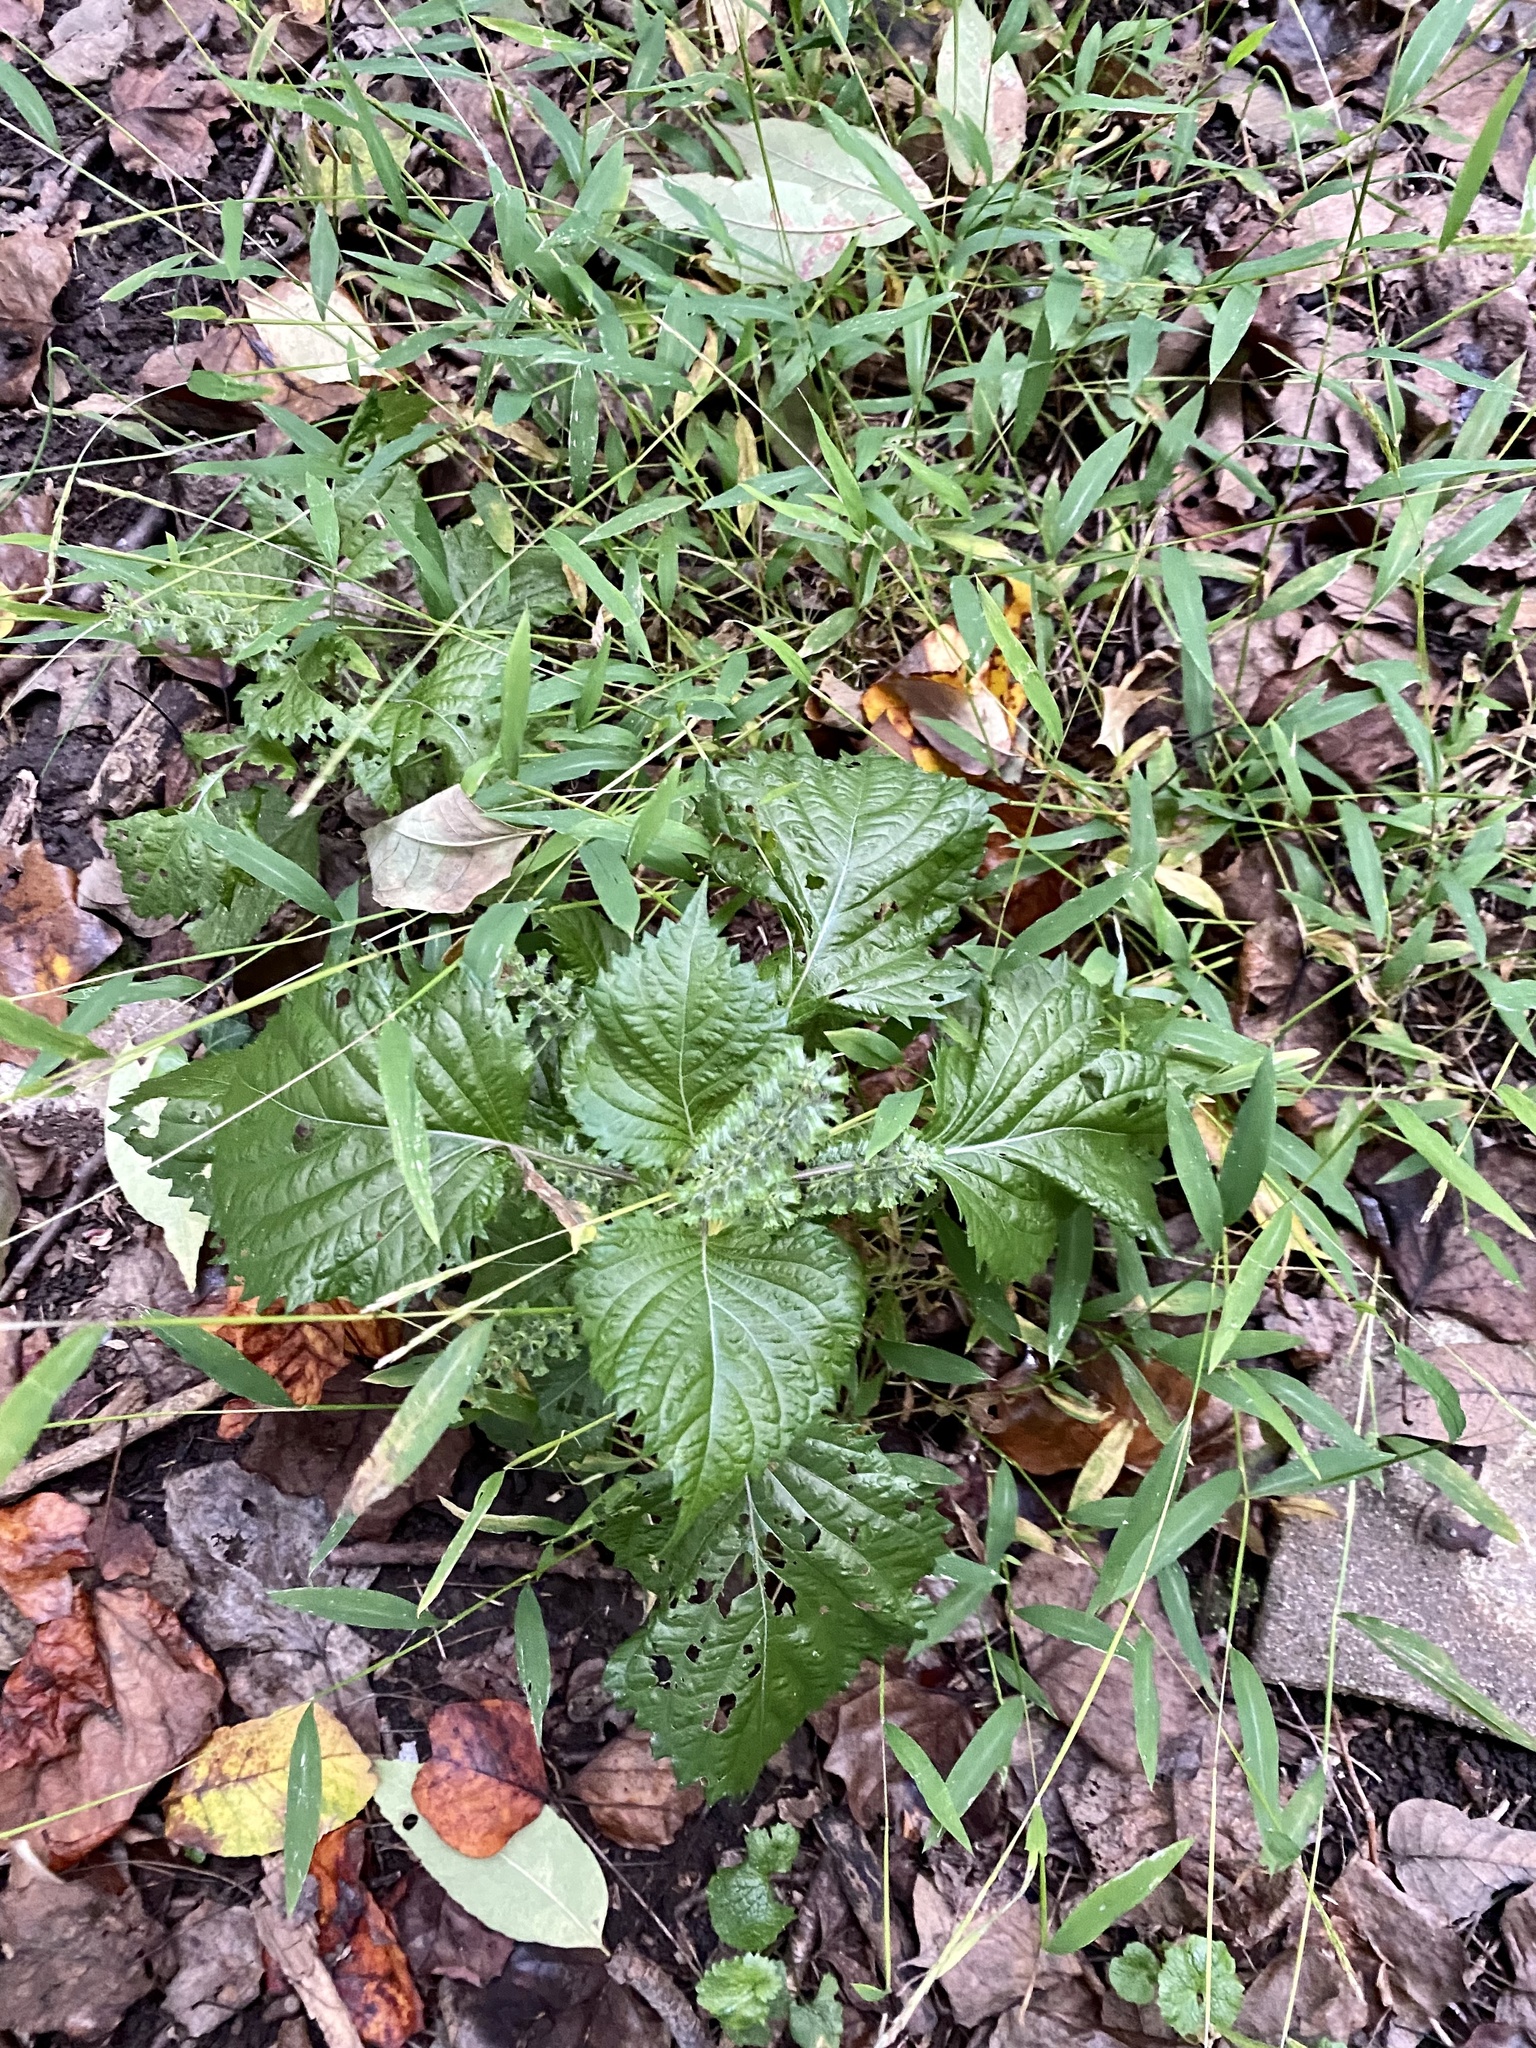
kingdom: Plantae
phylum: Tracheophyta
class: Magnoliopsida
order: Lamiales
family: Lamiaceae
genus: Perilla
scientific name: Perilla frutescens
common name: Perilla
